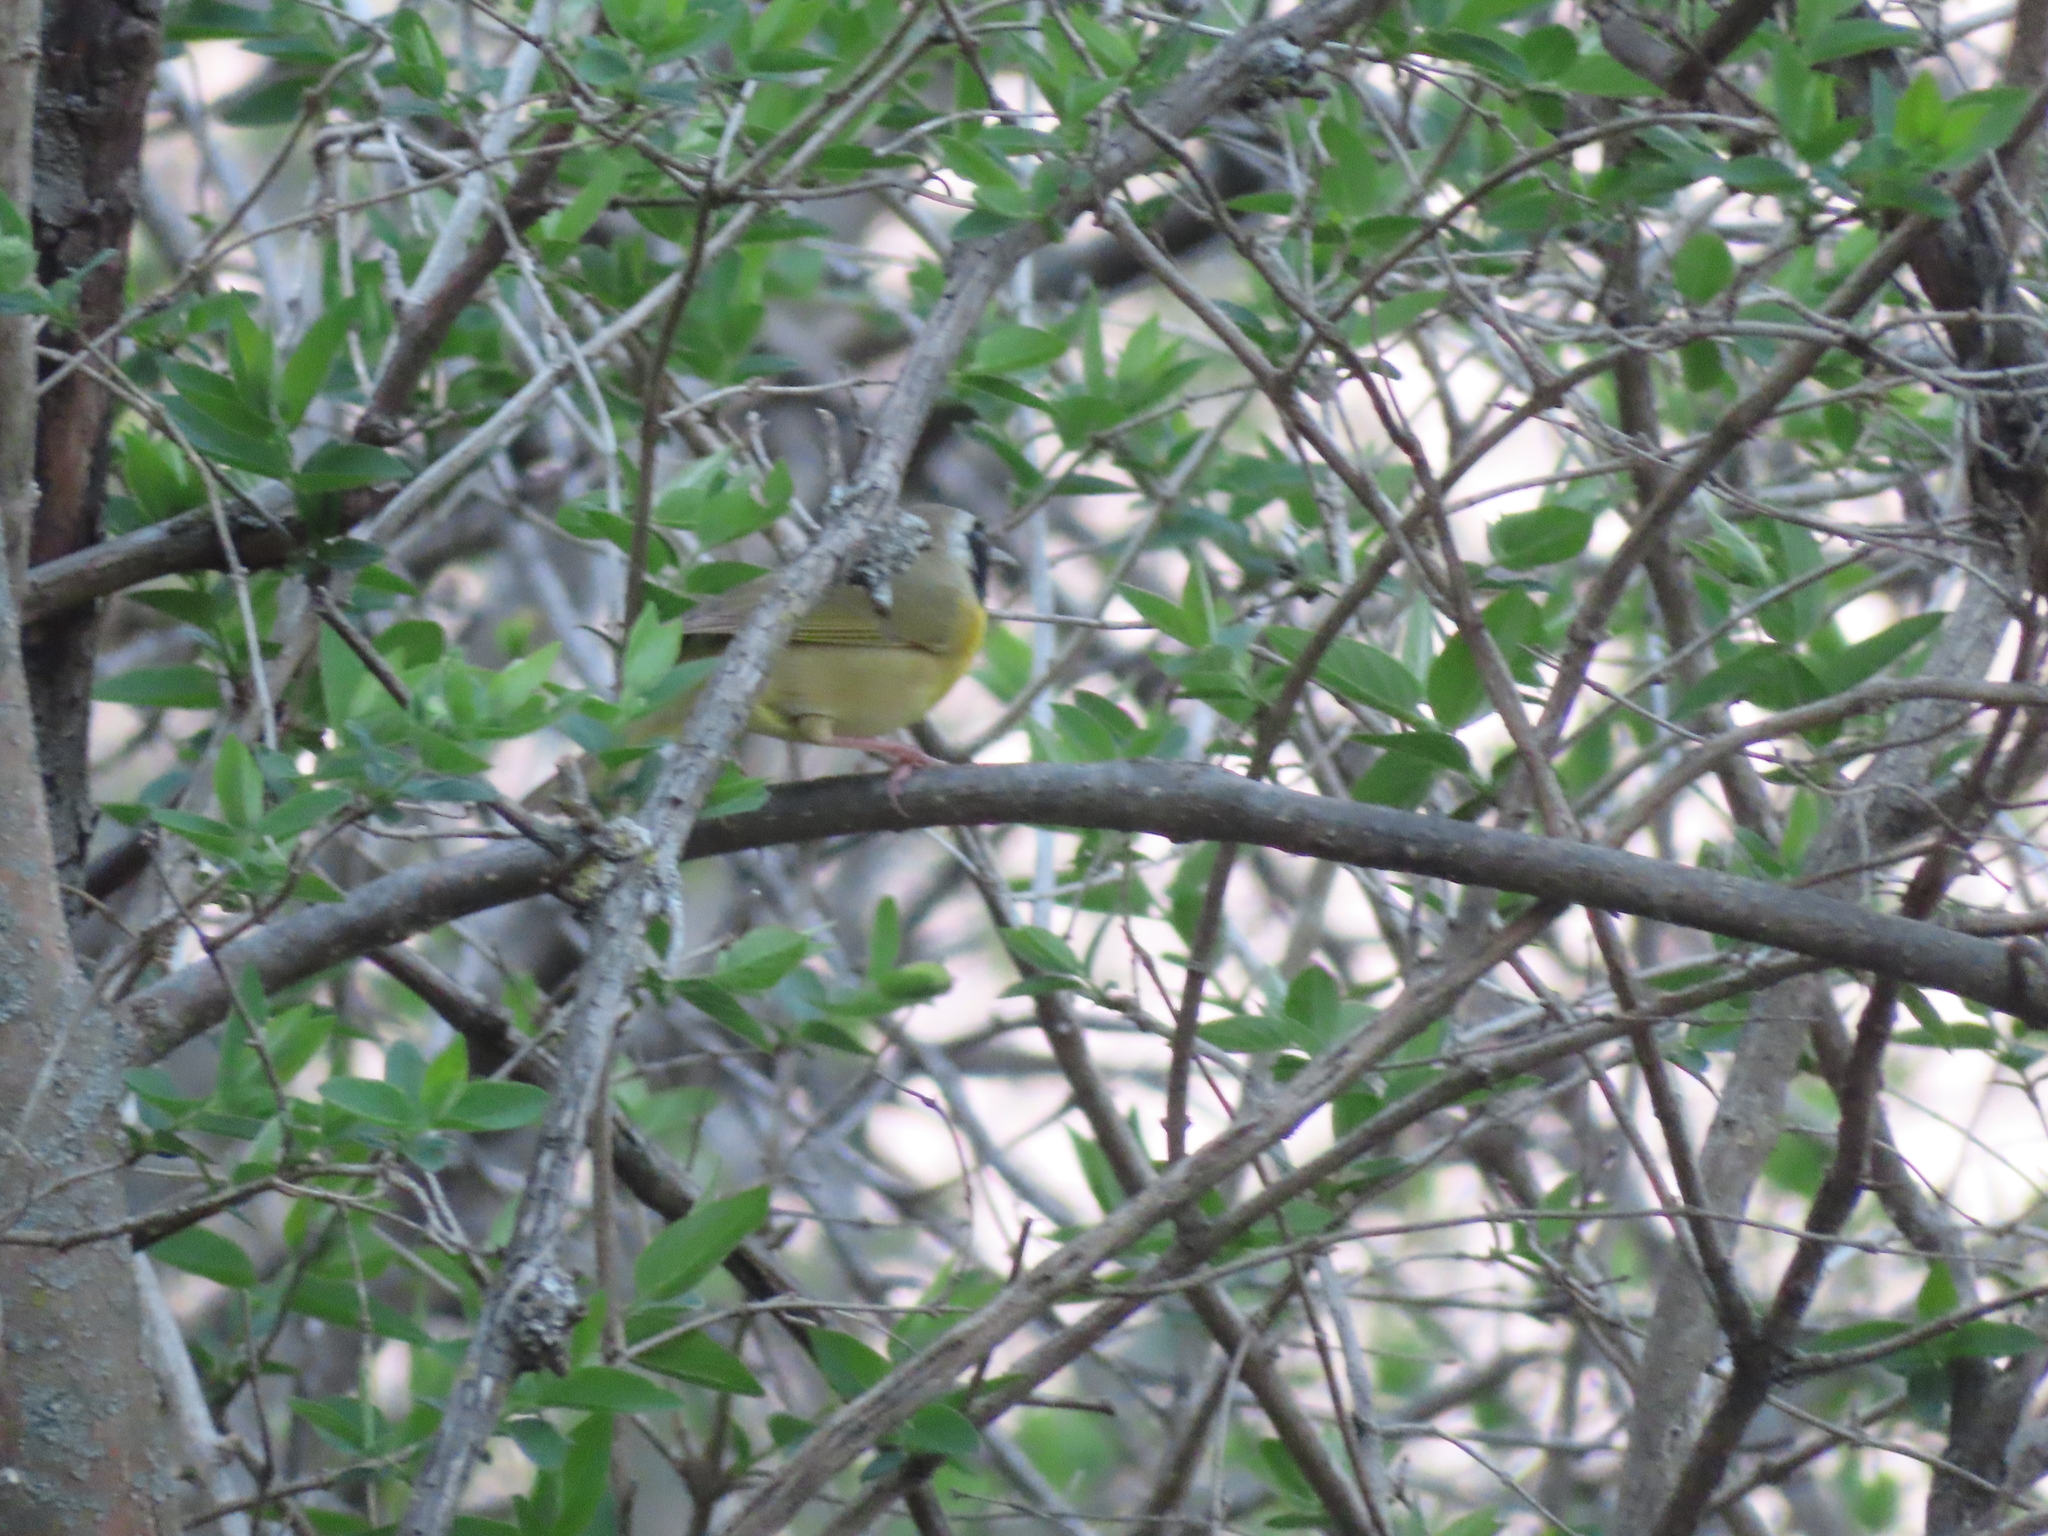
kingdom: Animalia
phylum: Chordata
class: Aves
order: Passeriformes
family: Parulidae
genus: Geothlypis
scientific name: Geothlypis trichas
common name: Common yellowthroat
